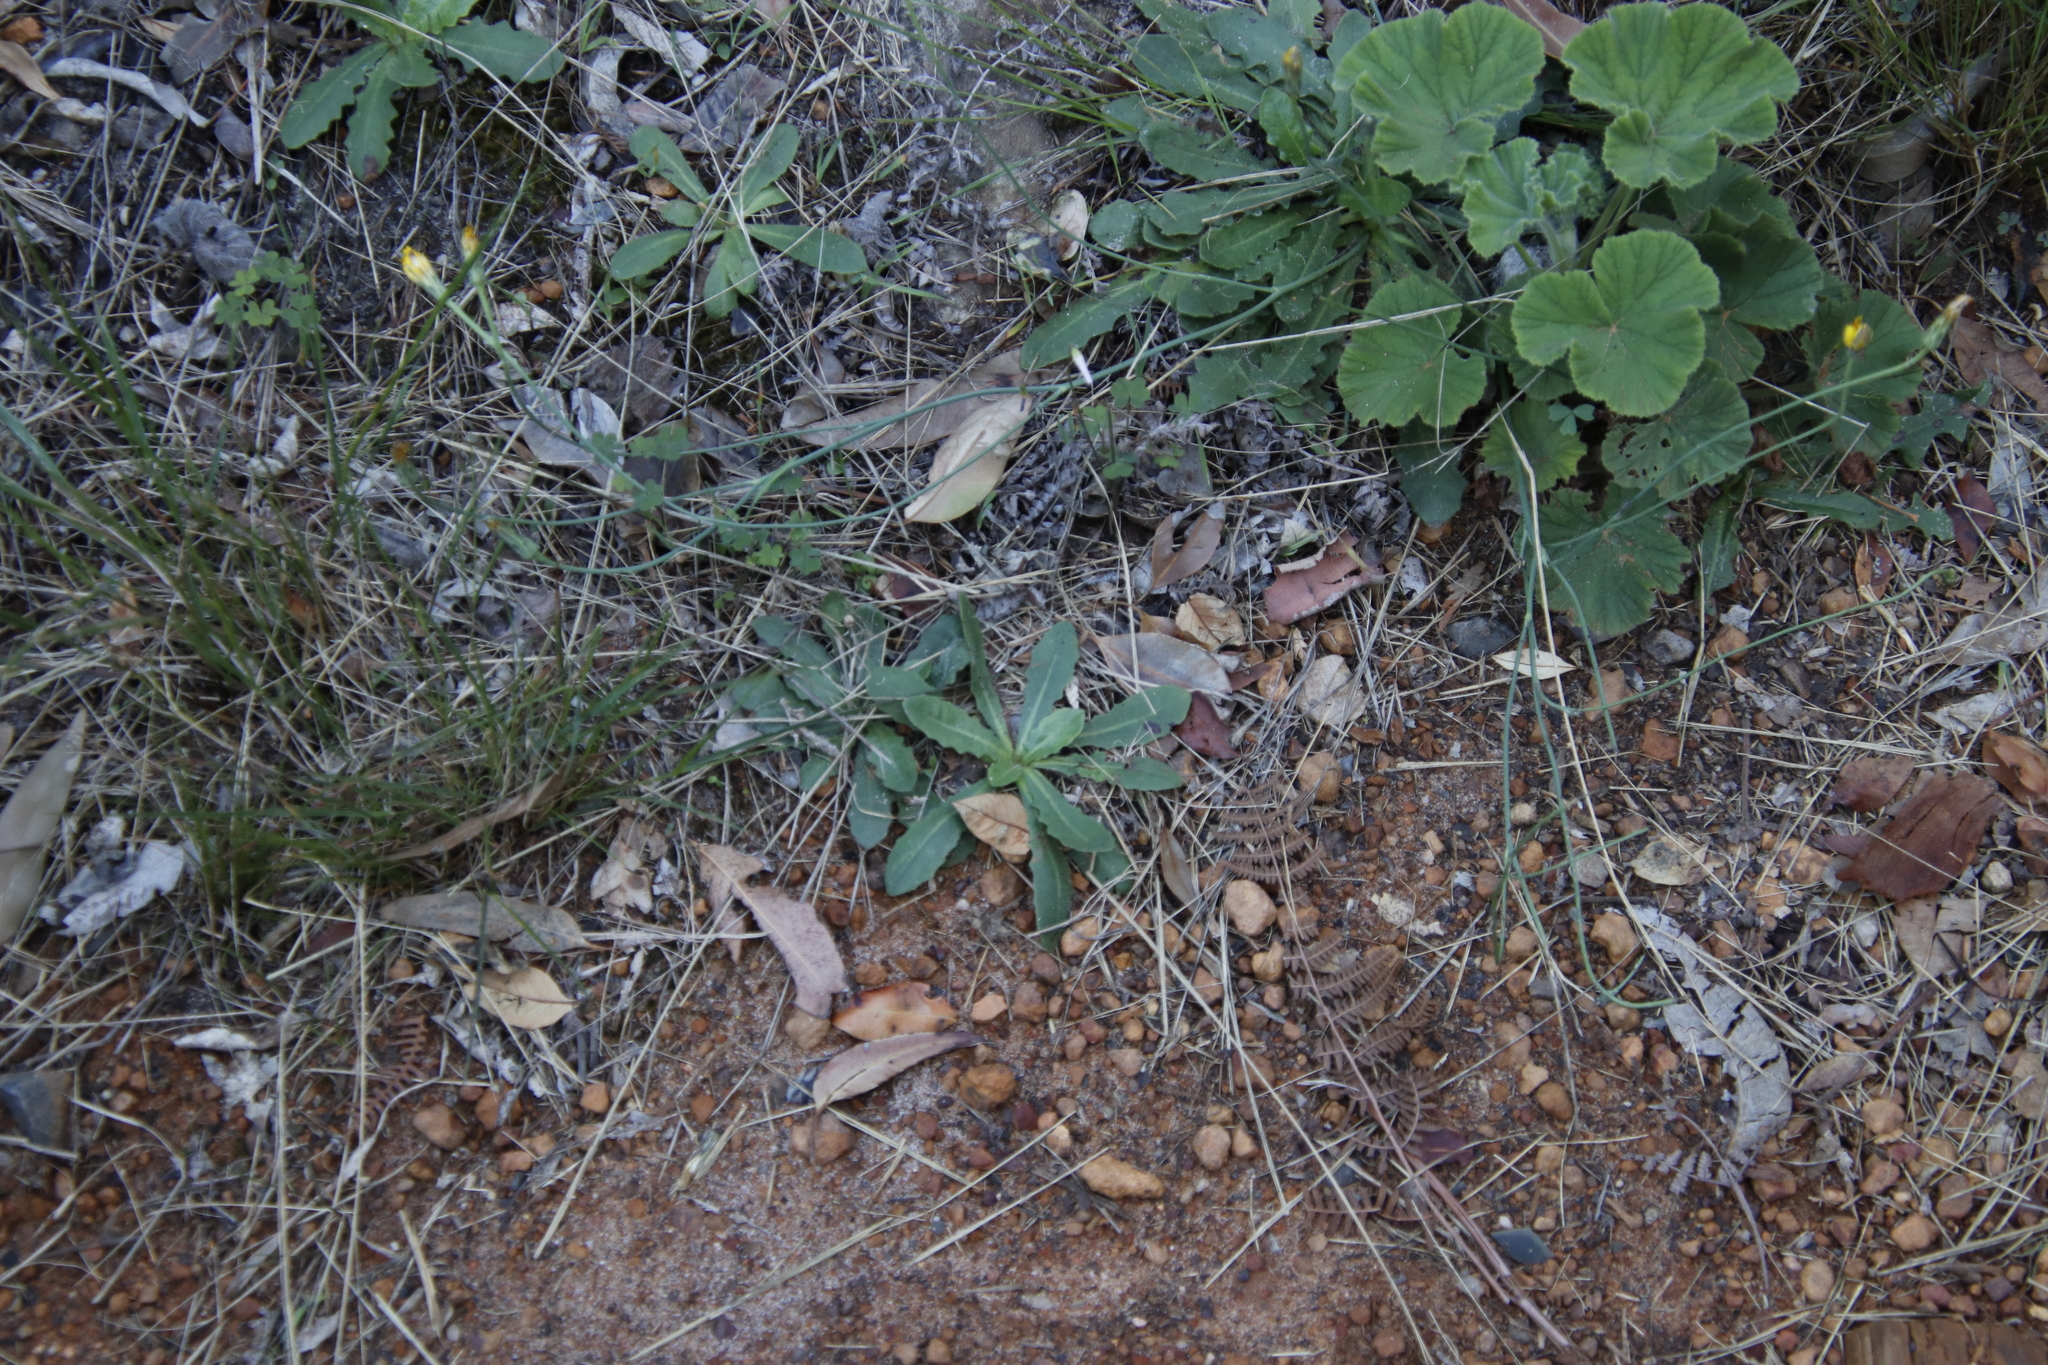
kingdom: Plantae
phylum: Tracheophyta
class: Magnoliopsida
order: Asterales
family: Asteraceae
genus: Hypochaeris
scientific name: Hypochaeris radicata
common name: Flatweed
